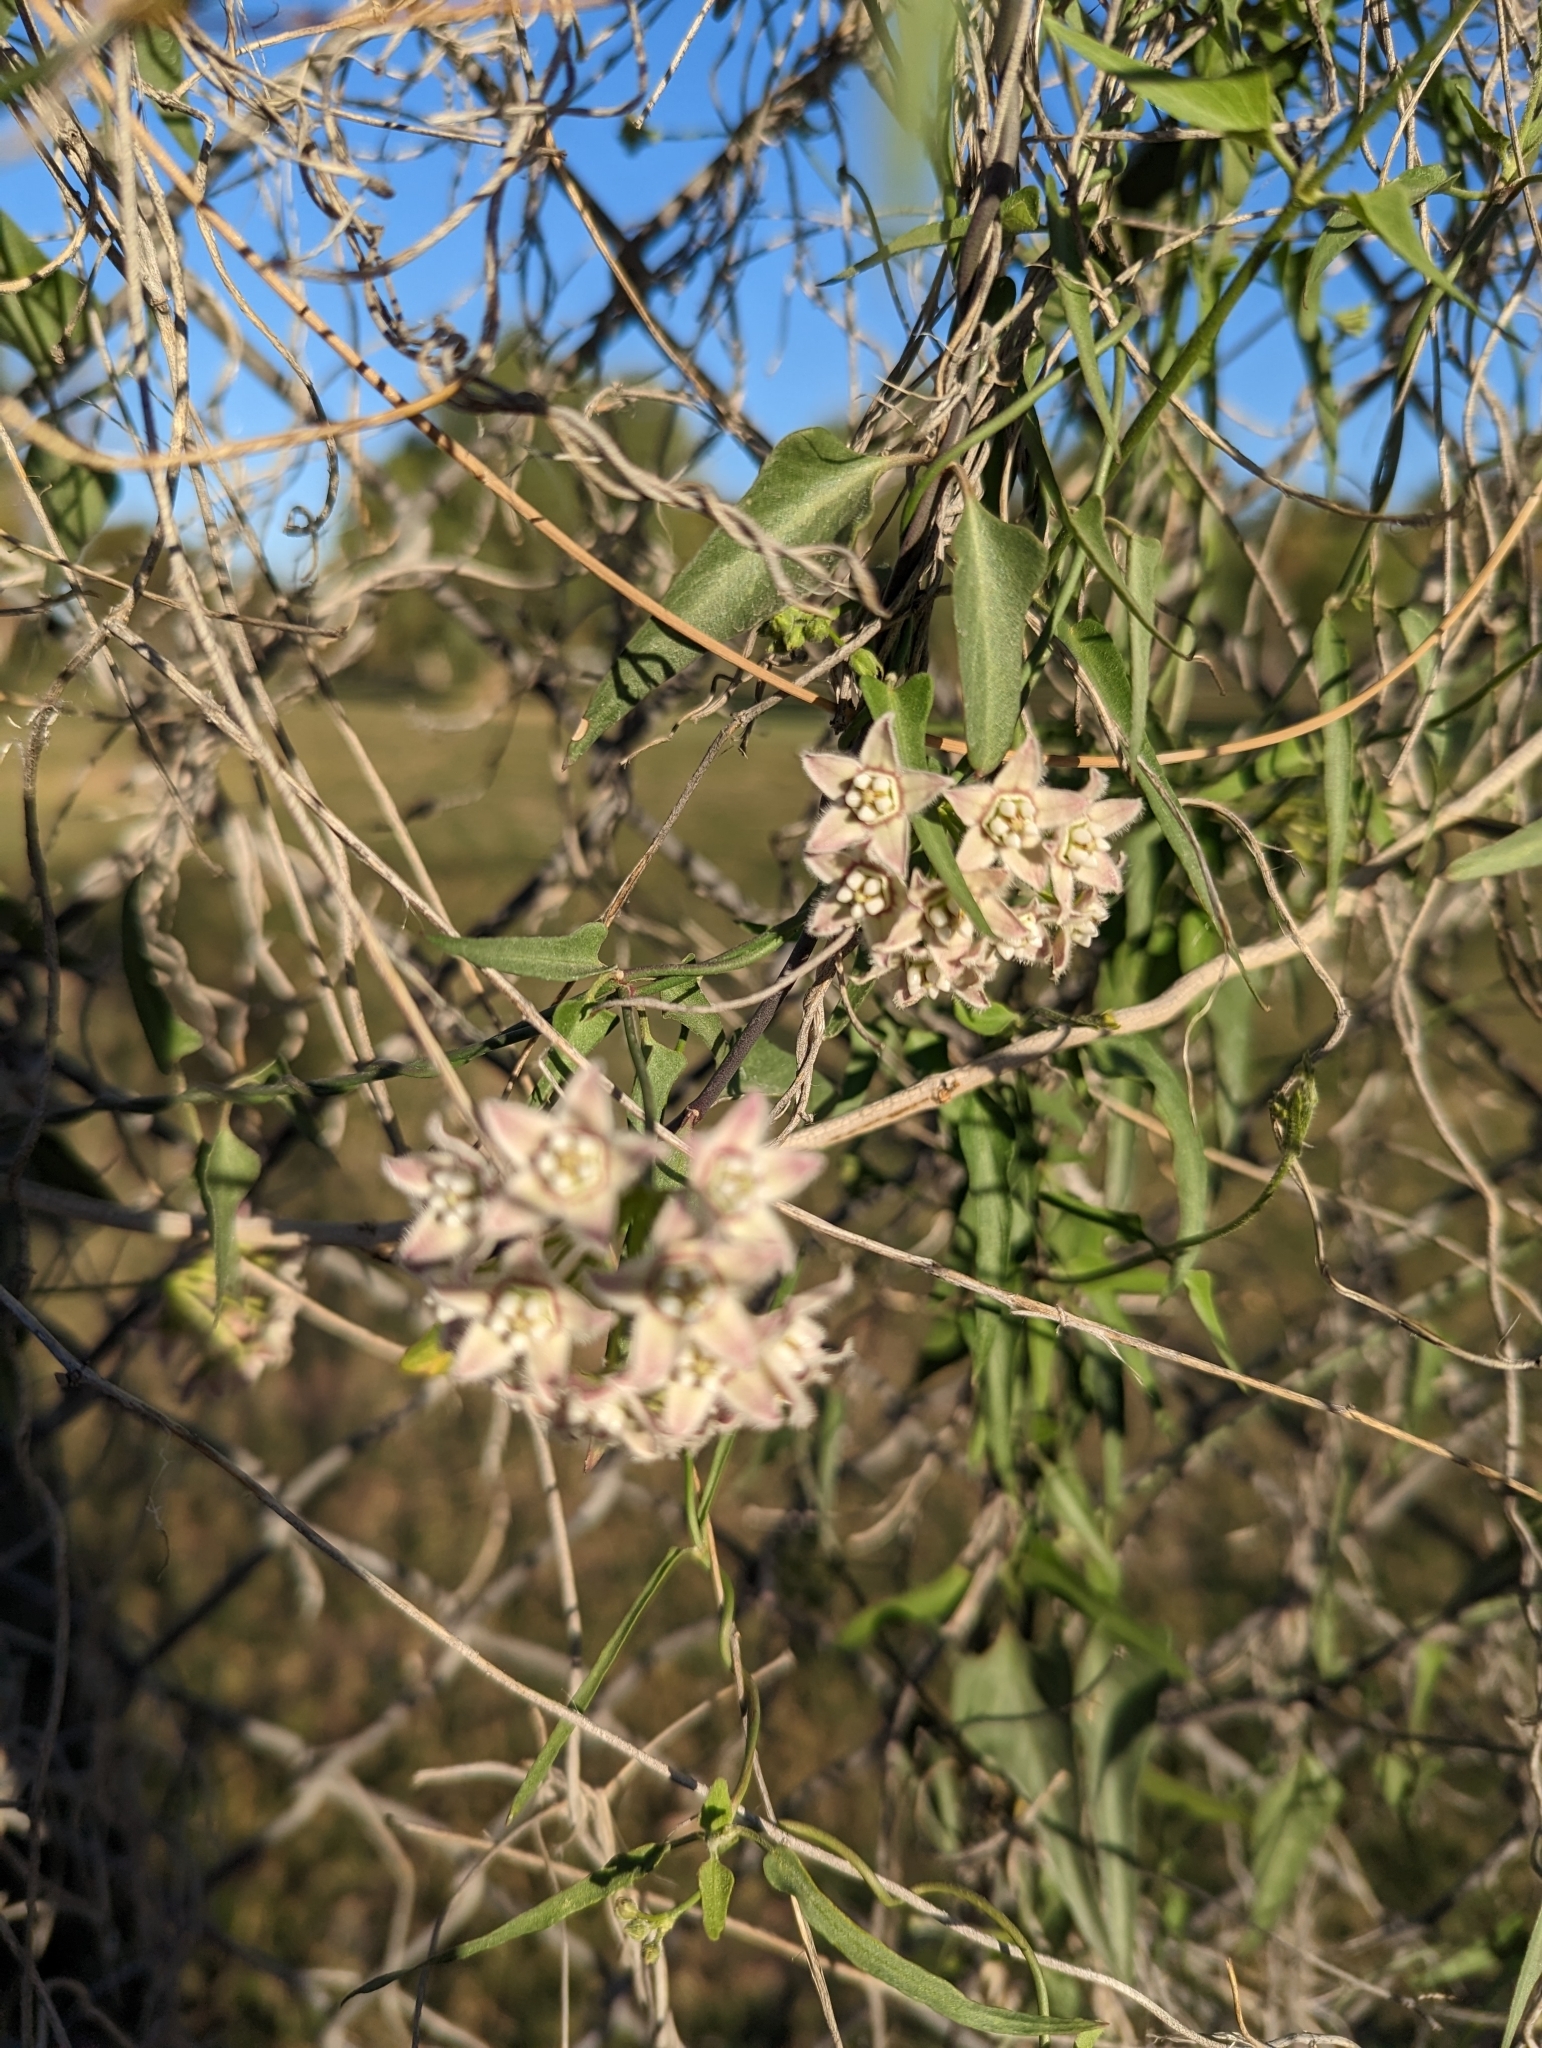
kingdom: Plantae
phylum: Tracheophyta
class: Magnoliopsida
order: Gentianales
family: Apocynaceae
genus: Funastrum
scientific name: Funastrum heterophyllum
